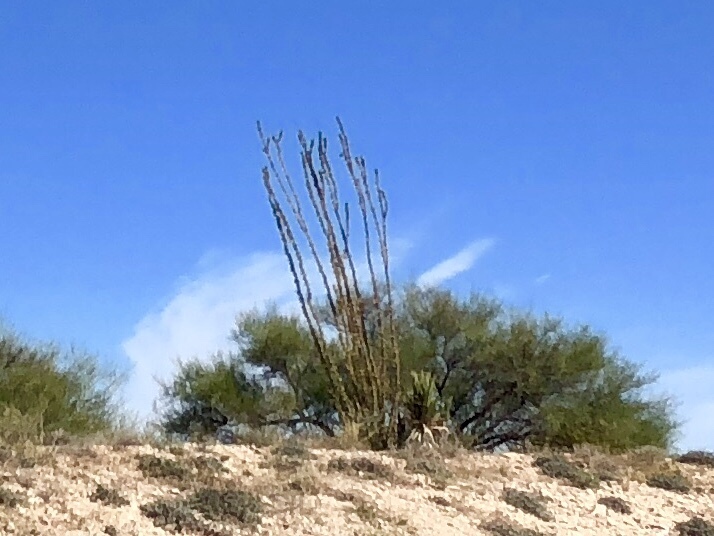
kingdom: Plantae
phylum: Tracheophyta
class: Magnoliopsida
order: Ericales
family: Fouquieriaceae
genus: Fouquieria
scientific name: Fouquieria splendens
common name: Vine-cactus
